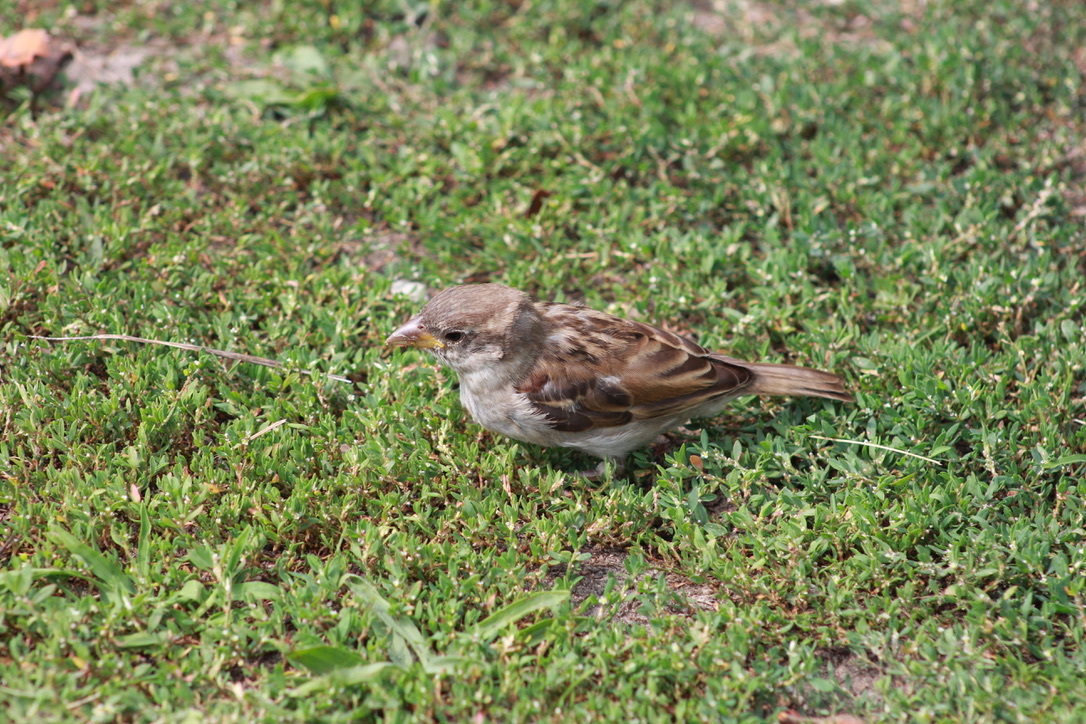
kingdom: Animalia
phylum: Chordata
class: Aves
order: Passeriformes
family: Passeridae
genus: Passer
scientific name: Passer domesticus
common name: House sparrow
